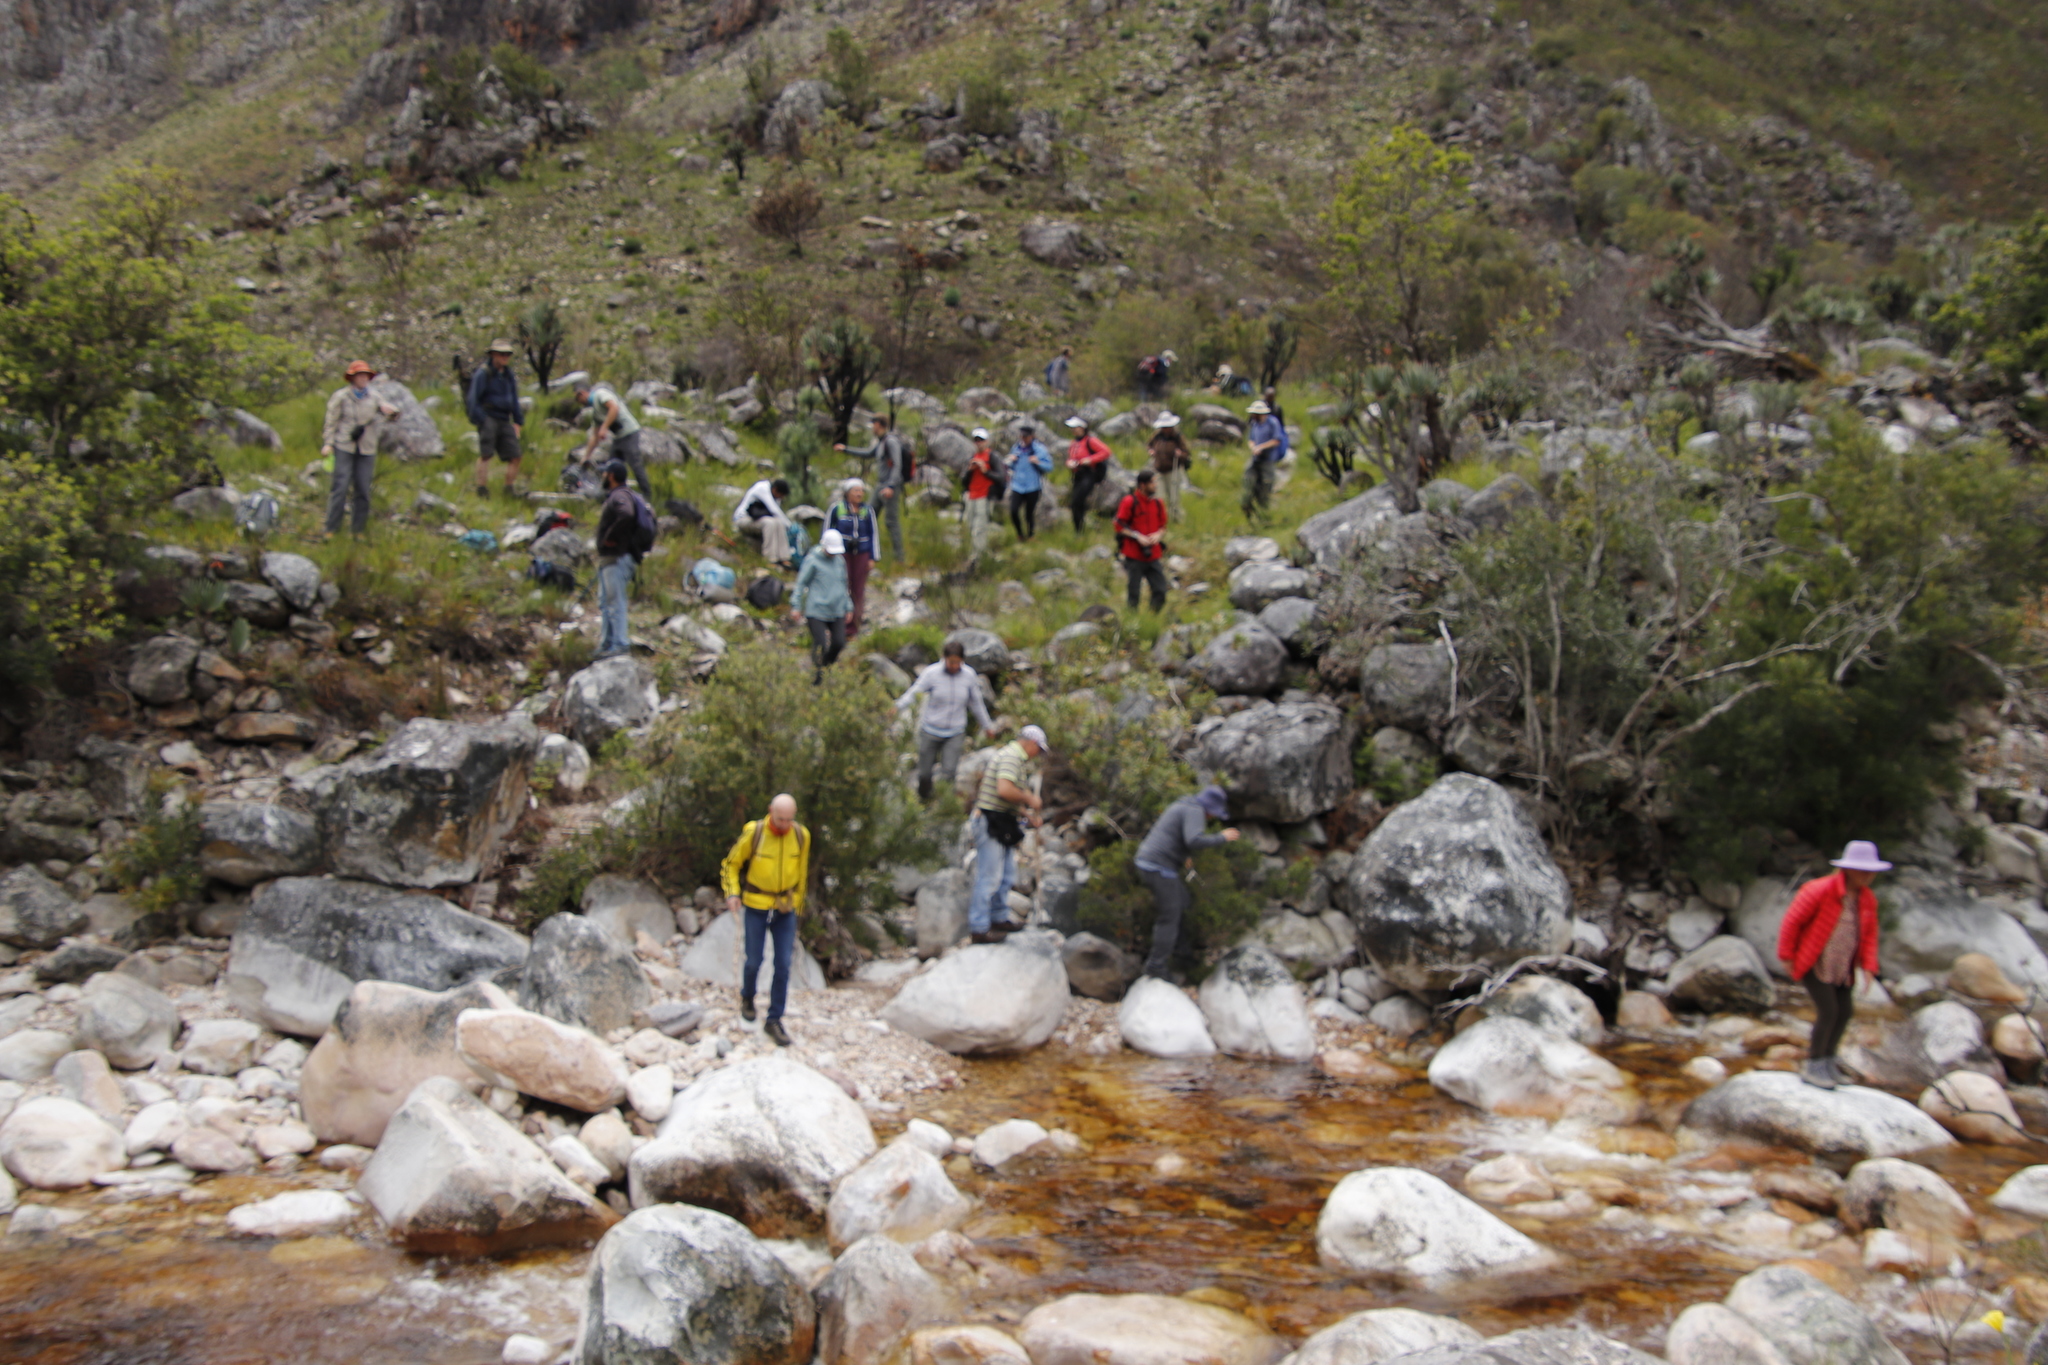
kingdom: Plantae
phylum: Tracheophyta
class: Liliopsida
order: Asparagales
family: Asphodelaceae
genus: Kumara
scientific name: Kumara plicatilis
